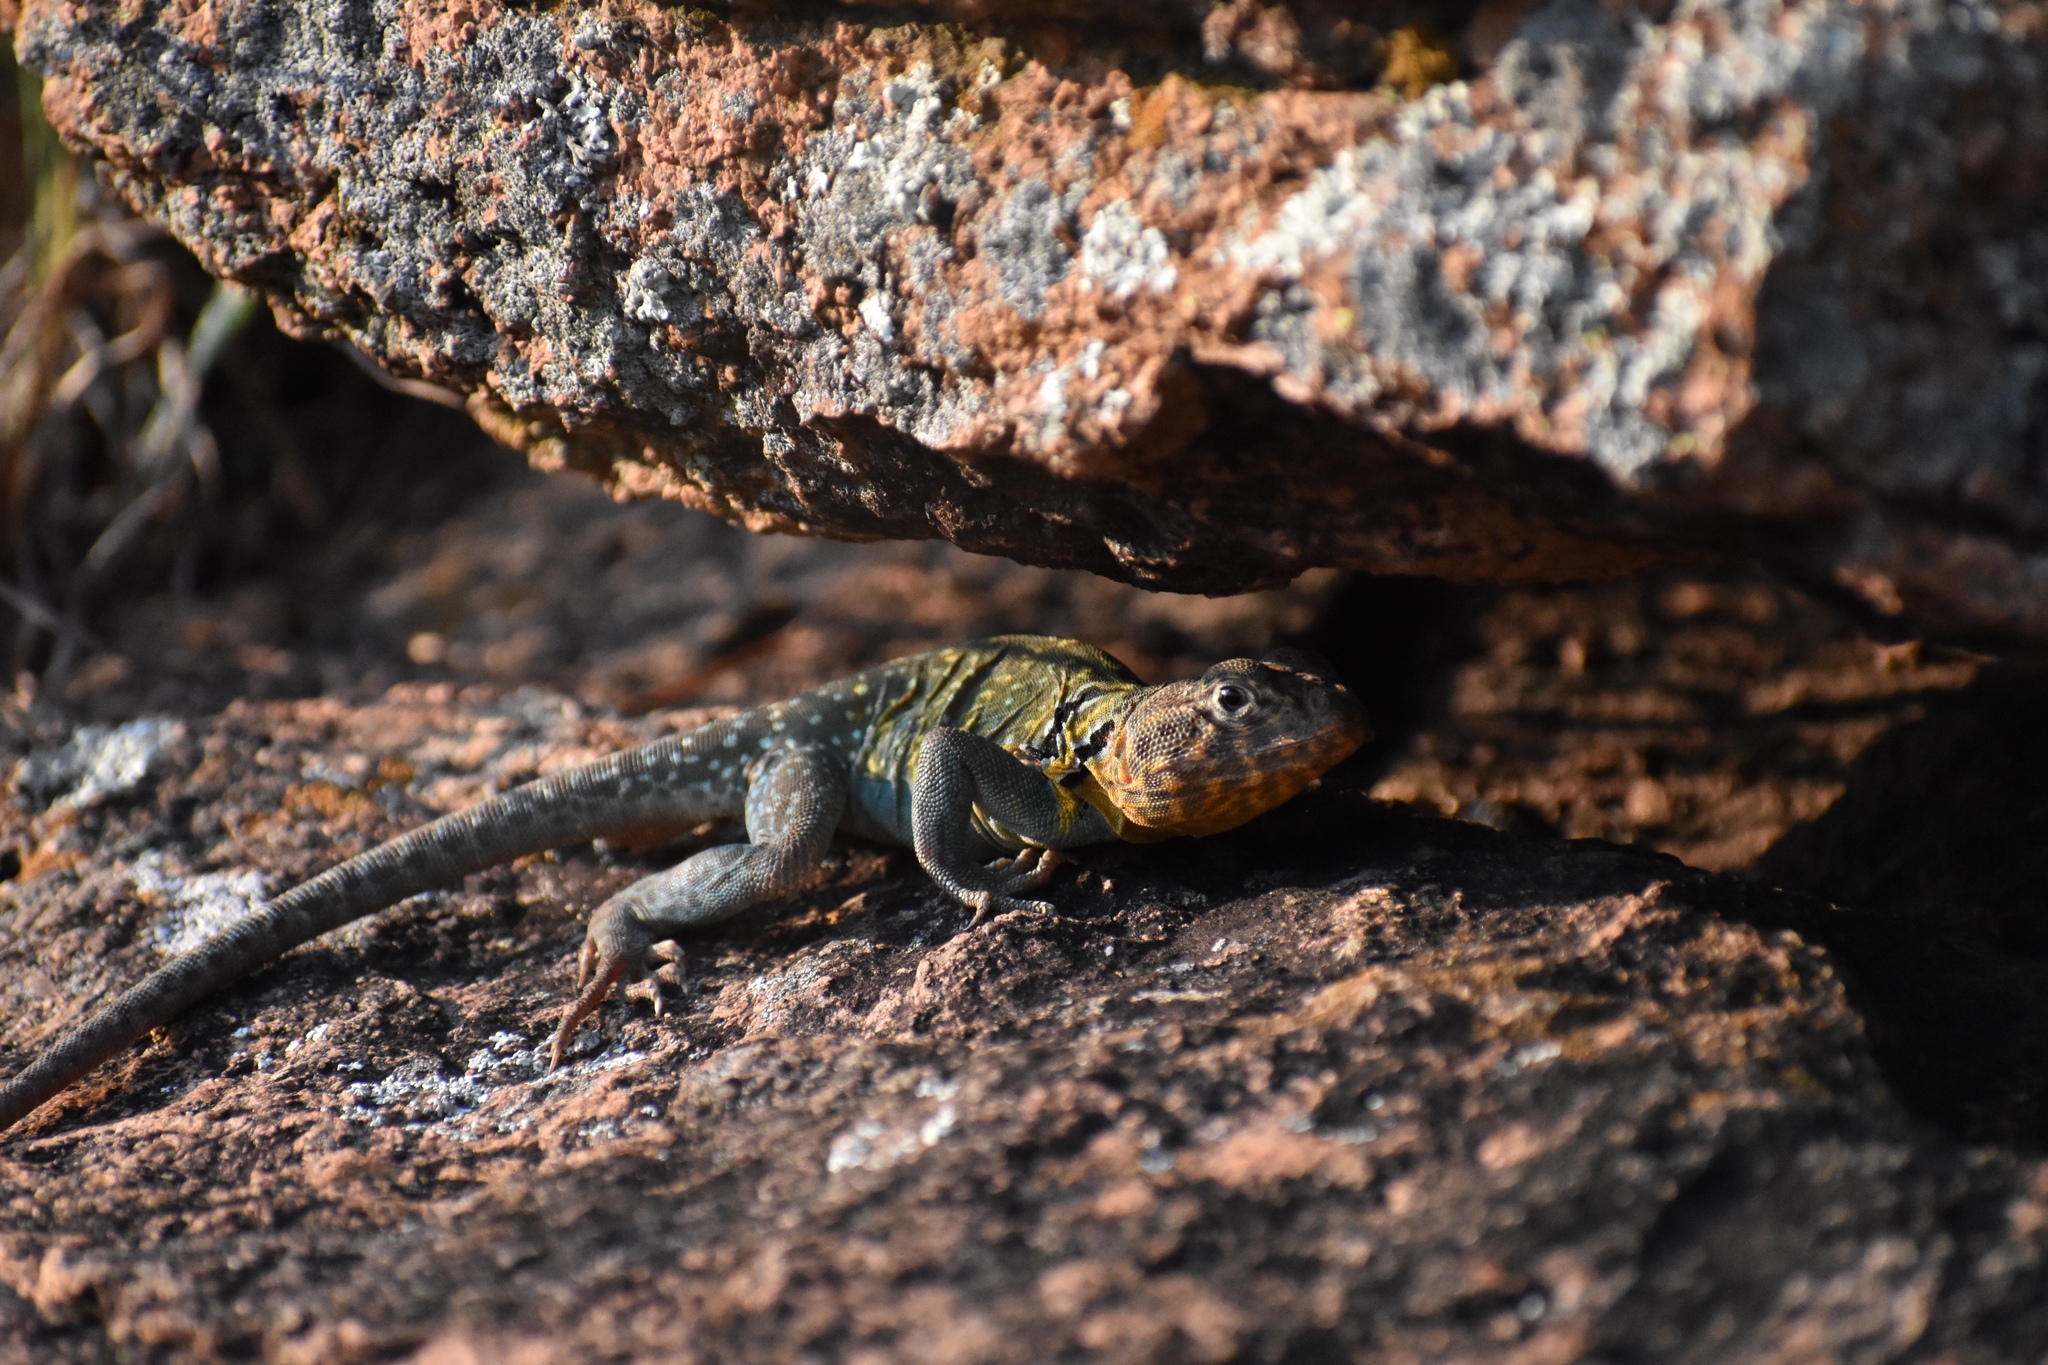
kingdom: Animalia
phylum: Chordata
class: Squamata
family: Crotaphytidae
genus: Crotaphytus
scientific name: Crotaphytus collaris
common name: Collared lizard
